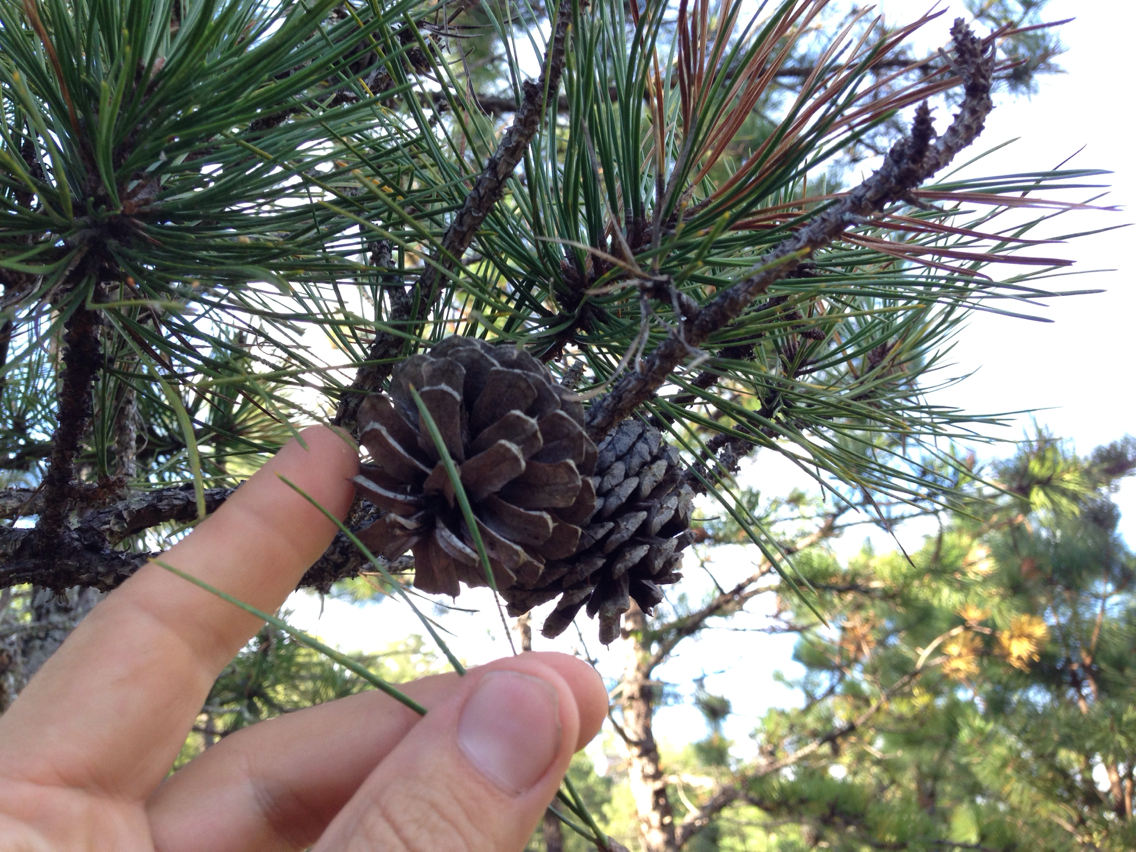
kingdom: Plantae
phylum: Tracheophyta
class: Pinopsida
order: Pinales
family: Pinaceae
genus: Pinus
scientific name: Pinus rigida
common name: Pitch pine
